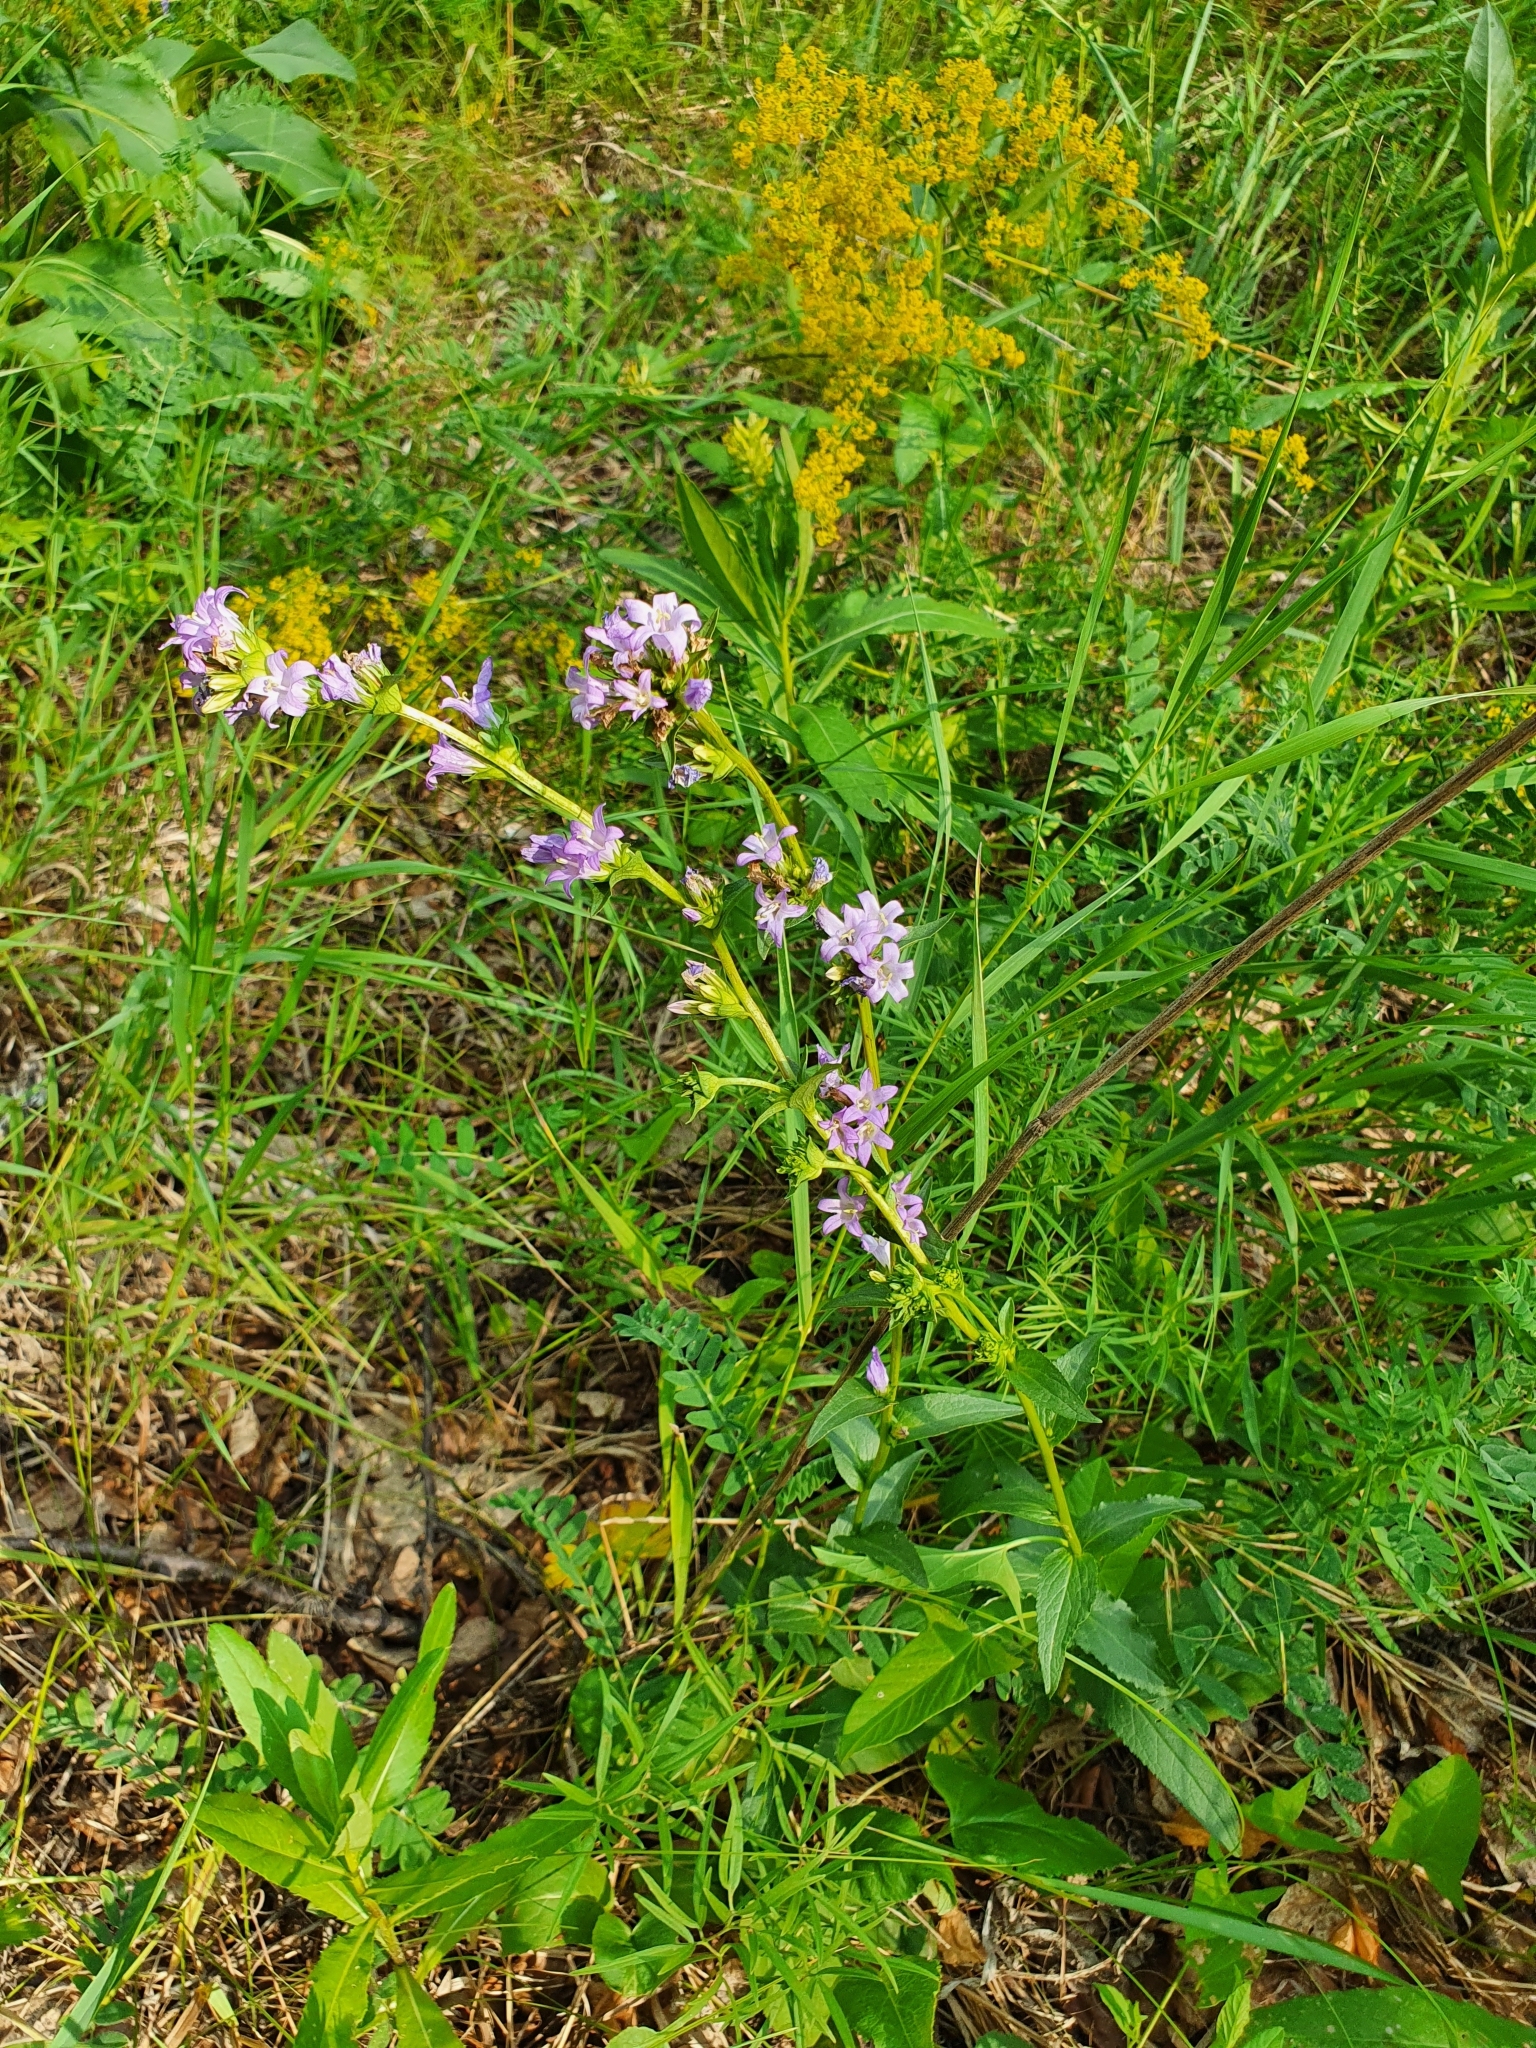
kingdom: Plantae
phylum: Tracheophyta
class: Magnoliopsida
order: Asterales
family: Campanulaceae
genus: Campanula
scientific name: Campanula glomerata
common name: Clustered bellflower
